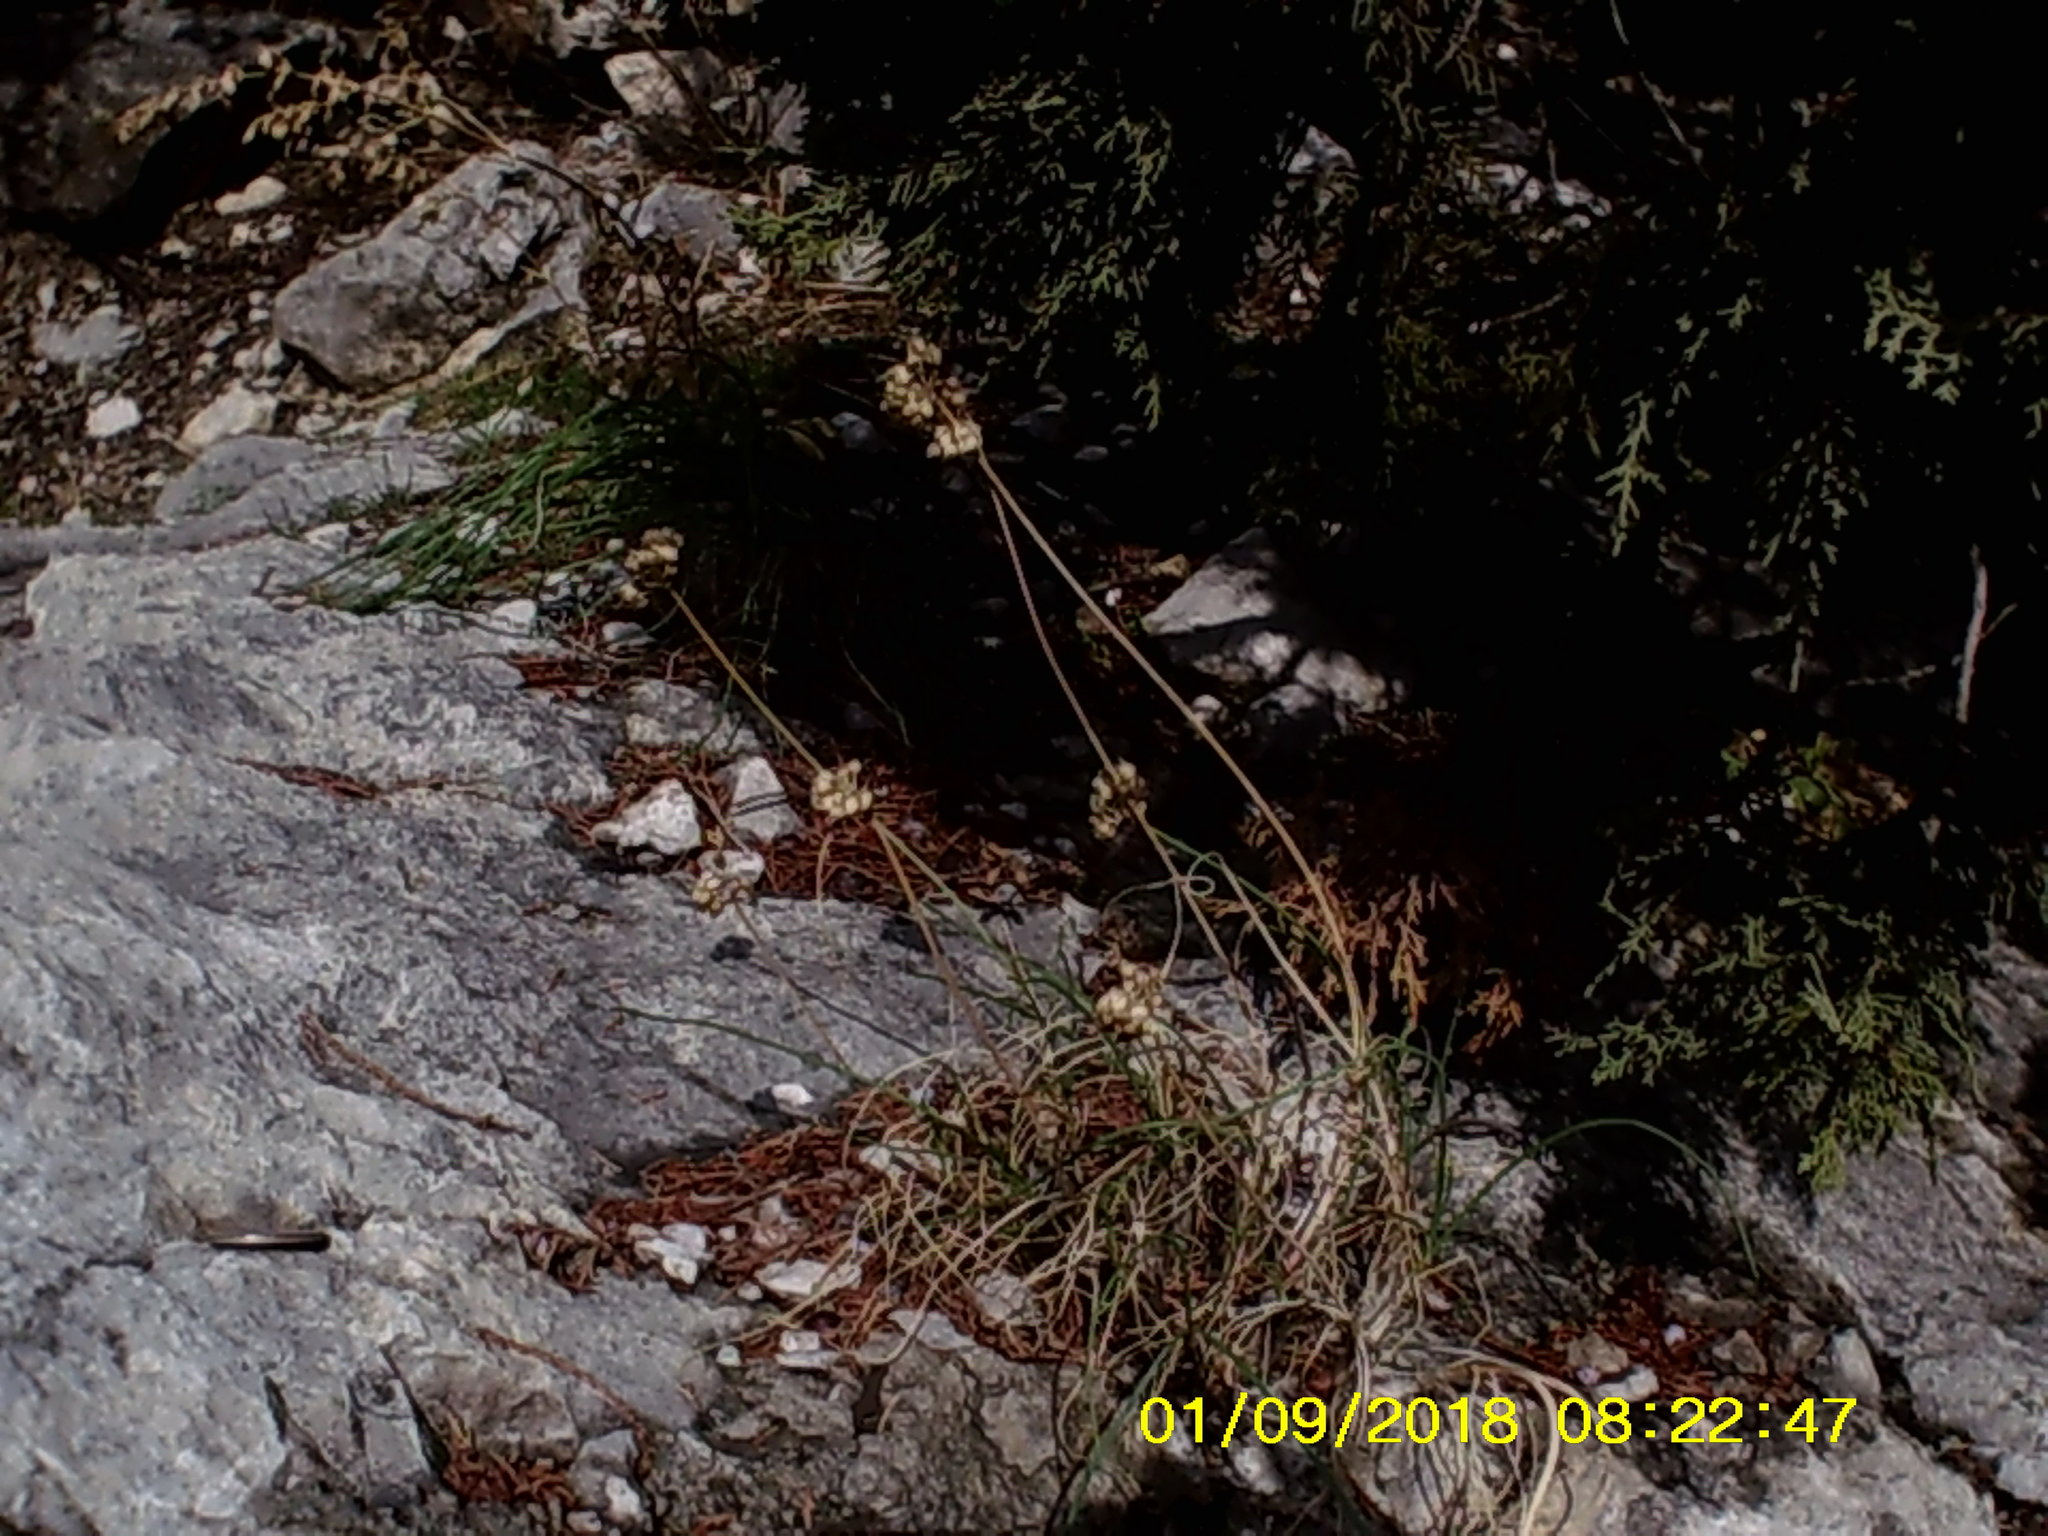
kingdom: Plantae
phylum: Tracheophyta
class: Liliopsida
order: Asparagales
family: Amaryllidaceae
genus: Allium
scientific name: Allium marschallianum
